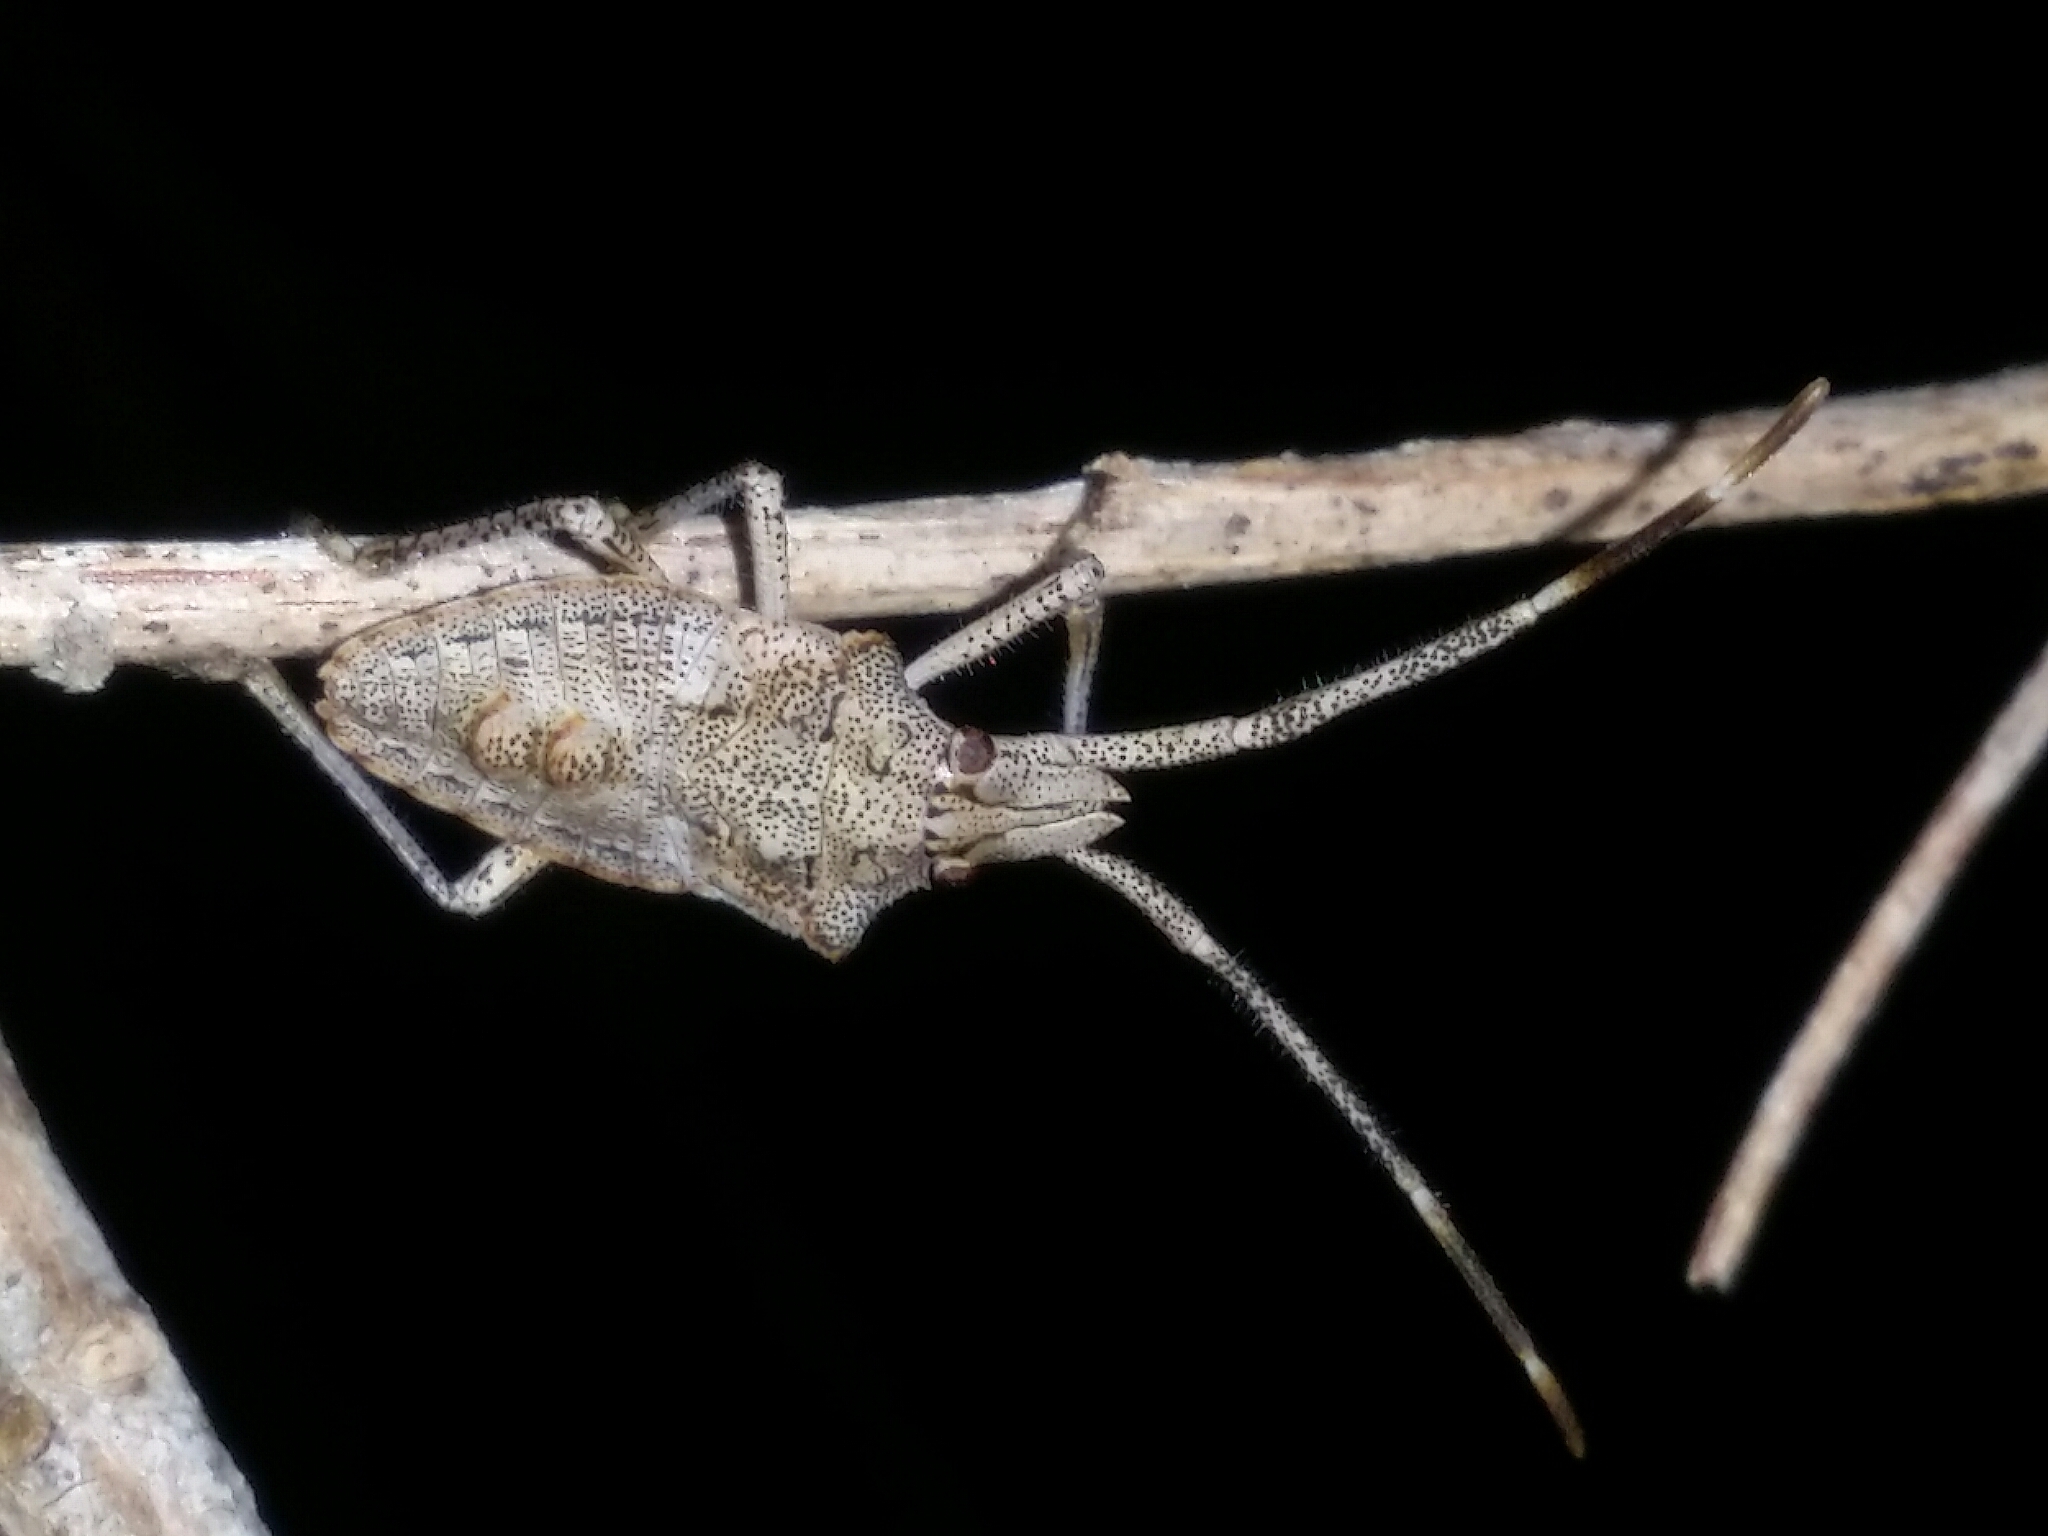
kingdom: Animalia
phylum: Arthropoda
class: Insecta
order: Hemiptera
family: Pentatomidae
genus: Alcaeus
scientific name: Alcaeus
